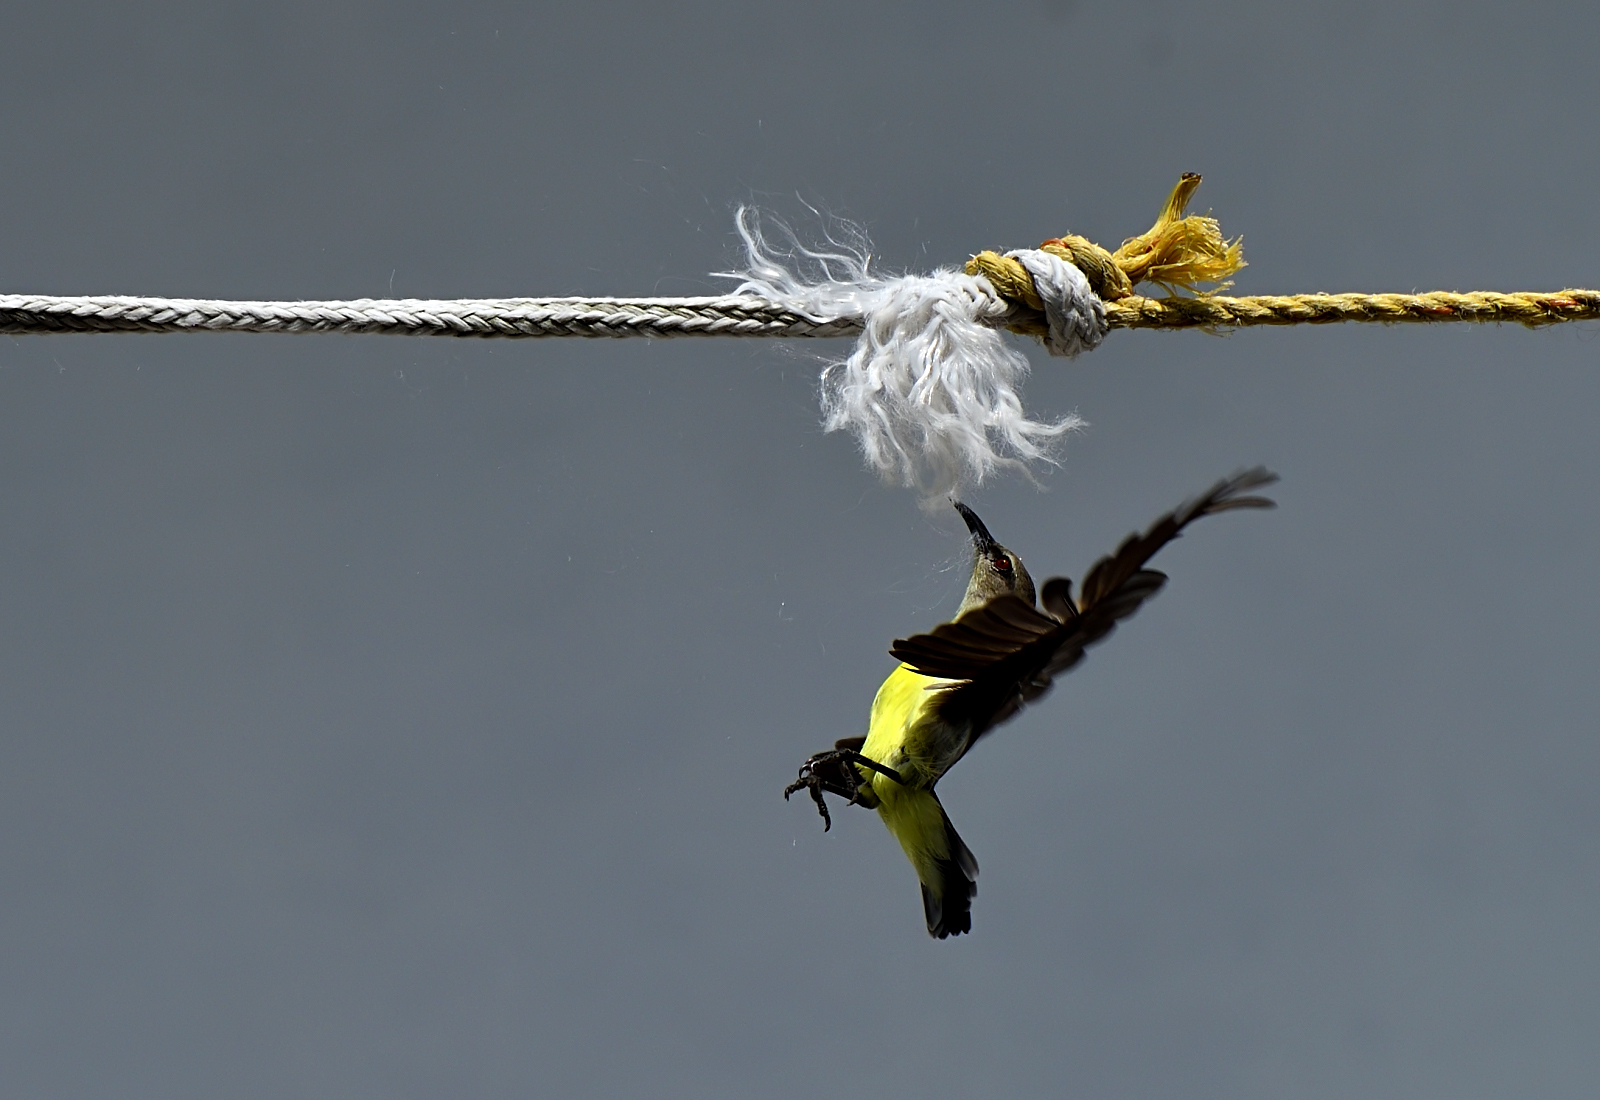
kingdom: Animalia
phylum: Chordata
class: Aves
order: Passeriformes
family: Nectariniidae
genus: Leptocoma
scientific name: Leptocoma zeylonica
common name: Purple-rumped sunbird
